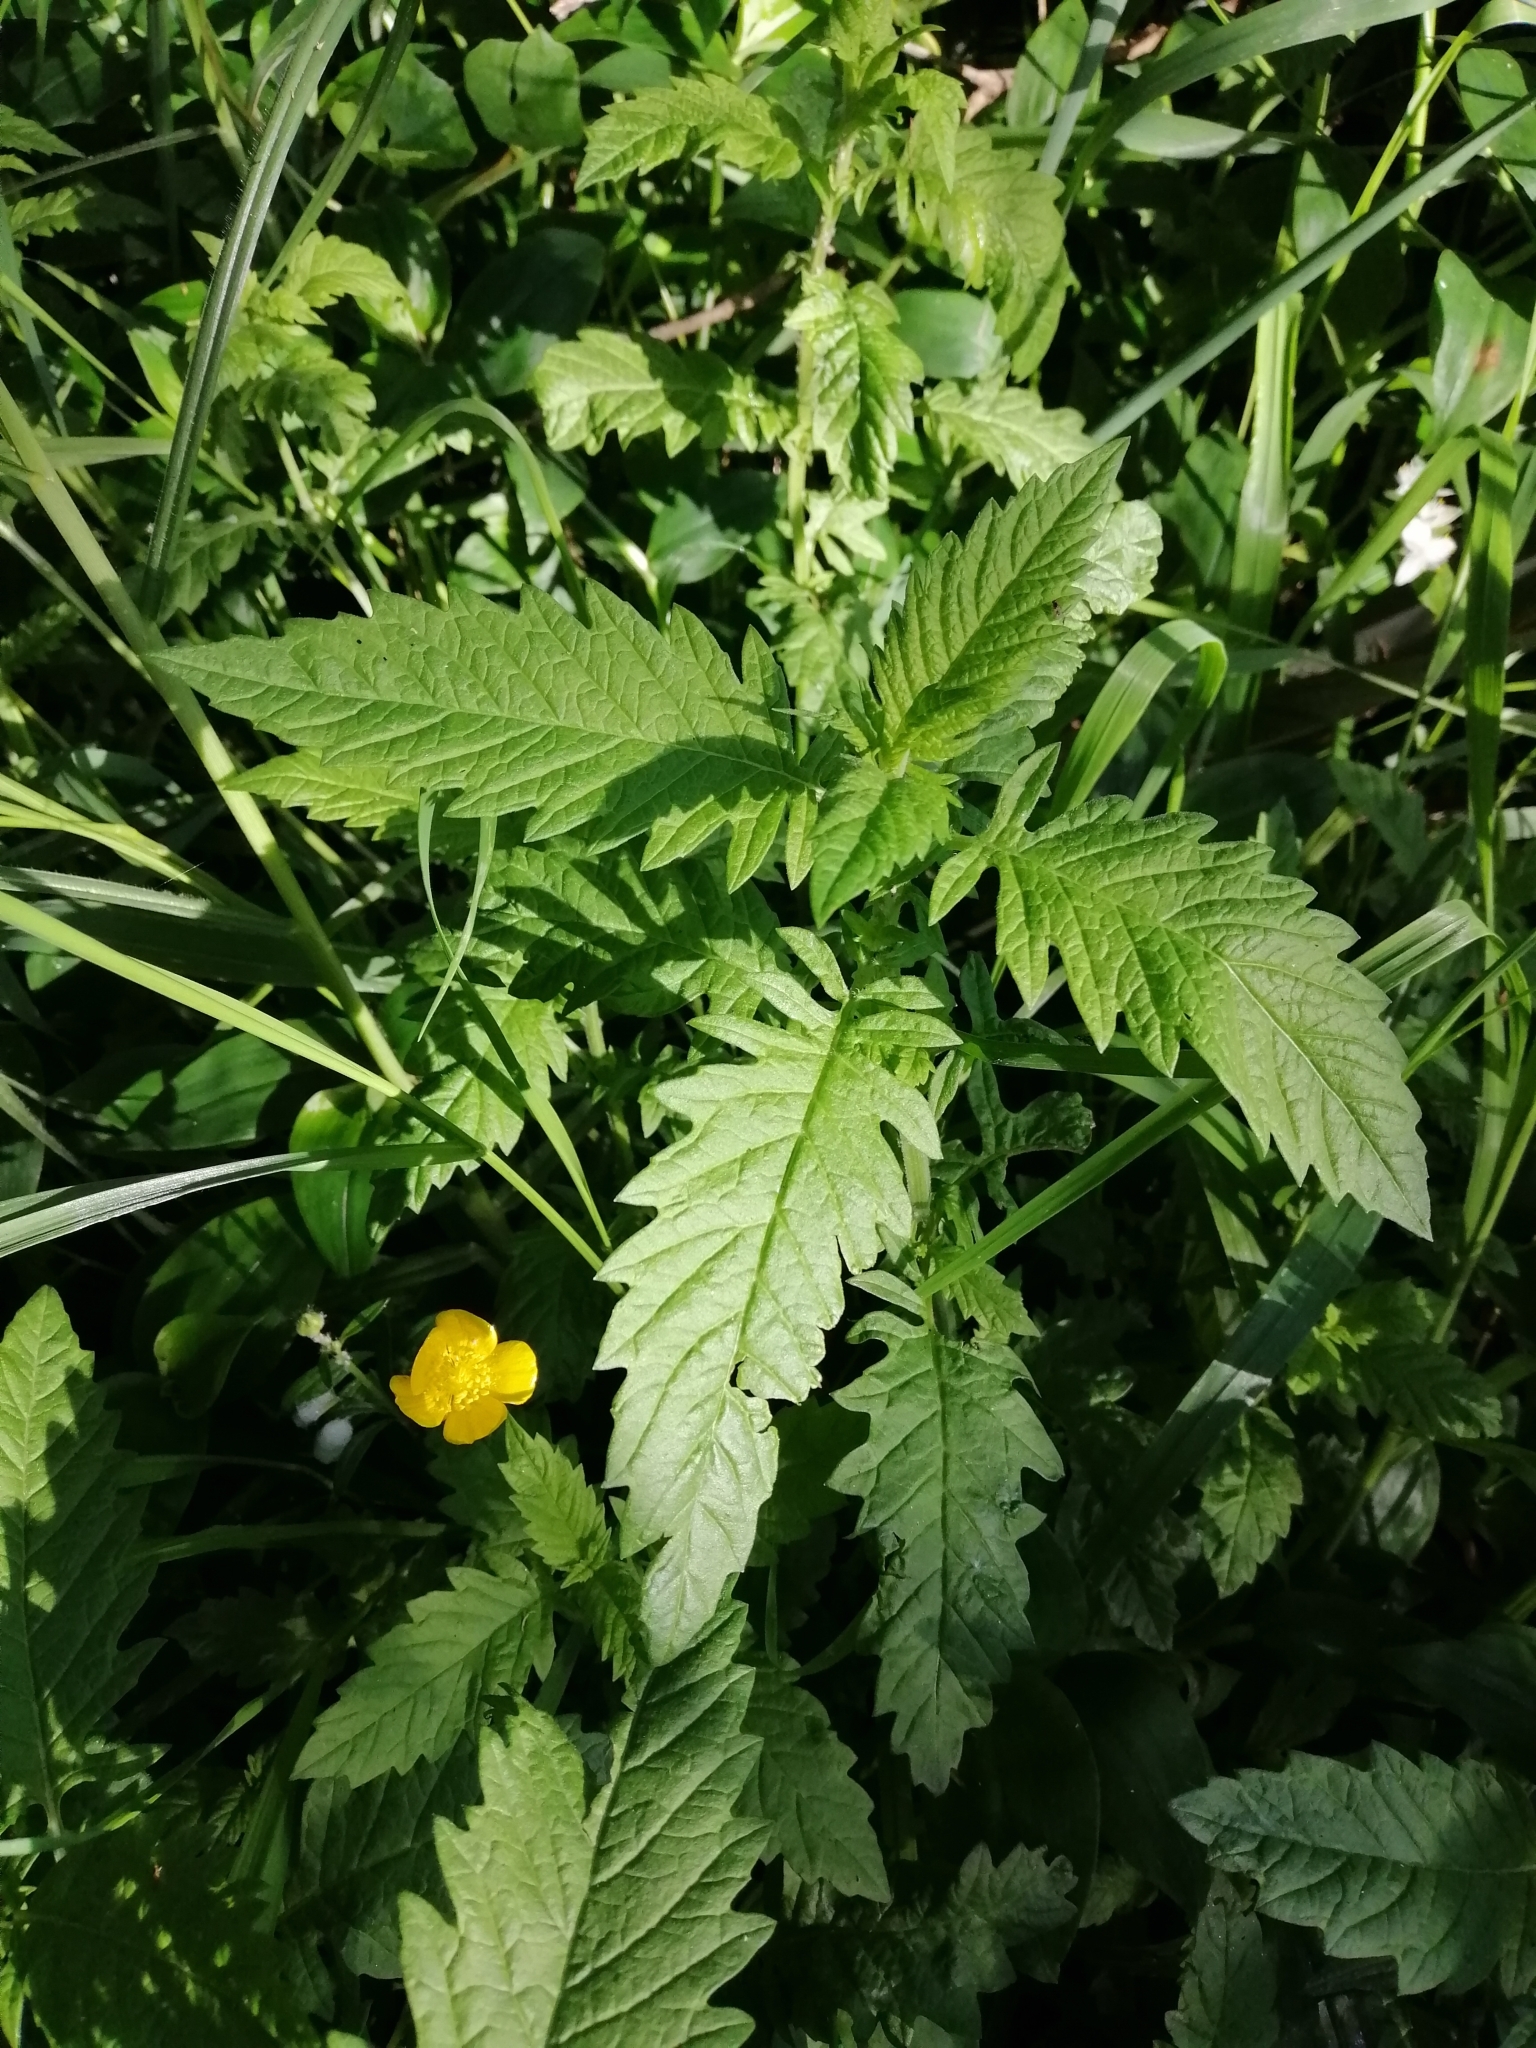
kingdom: Plantae
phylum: Tracheophyta
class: Magnoliopsida
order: Lamiales
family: Lamiaceae
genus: Lycopus
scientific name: Lycopus europaeus
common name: European bugleweed
